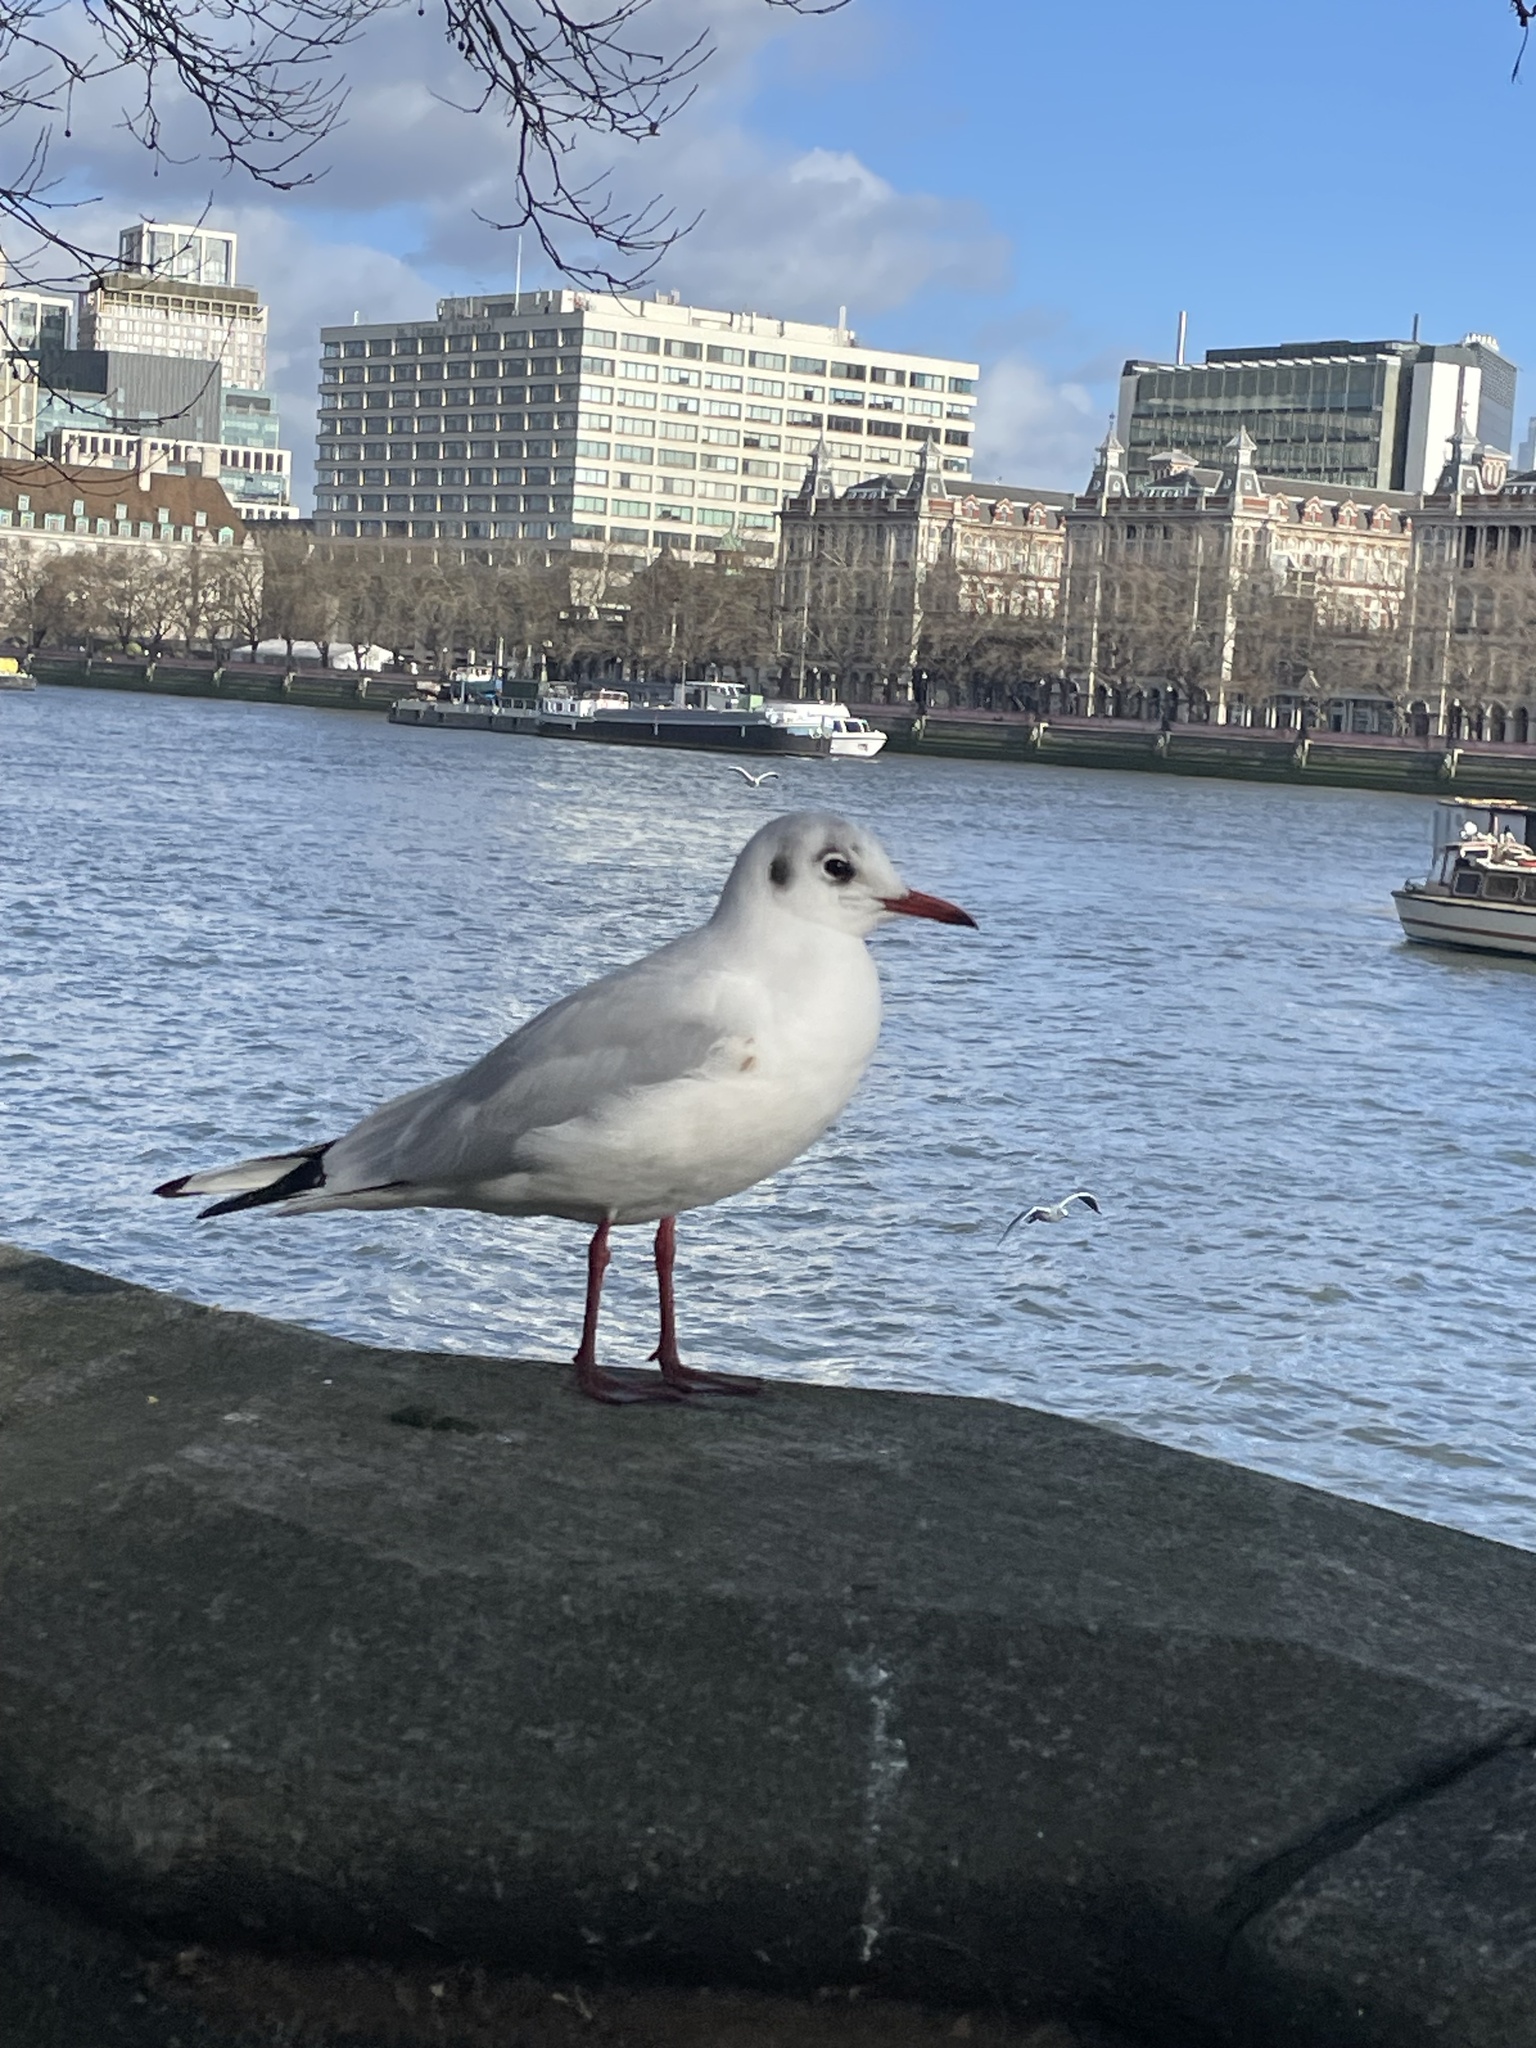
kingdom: Animalia
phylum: Chordata
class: Aves
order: Charadriiformes
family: Laridae
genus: Chroicocephalus
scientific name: Chroicocephalus ridibundus
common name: Black-headed gull
